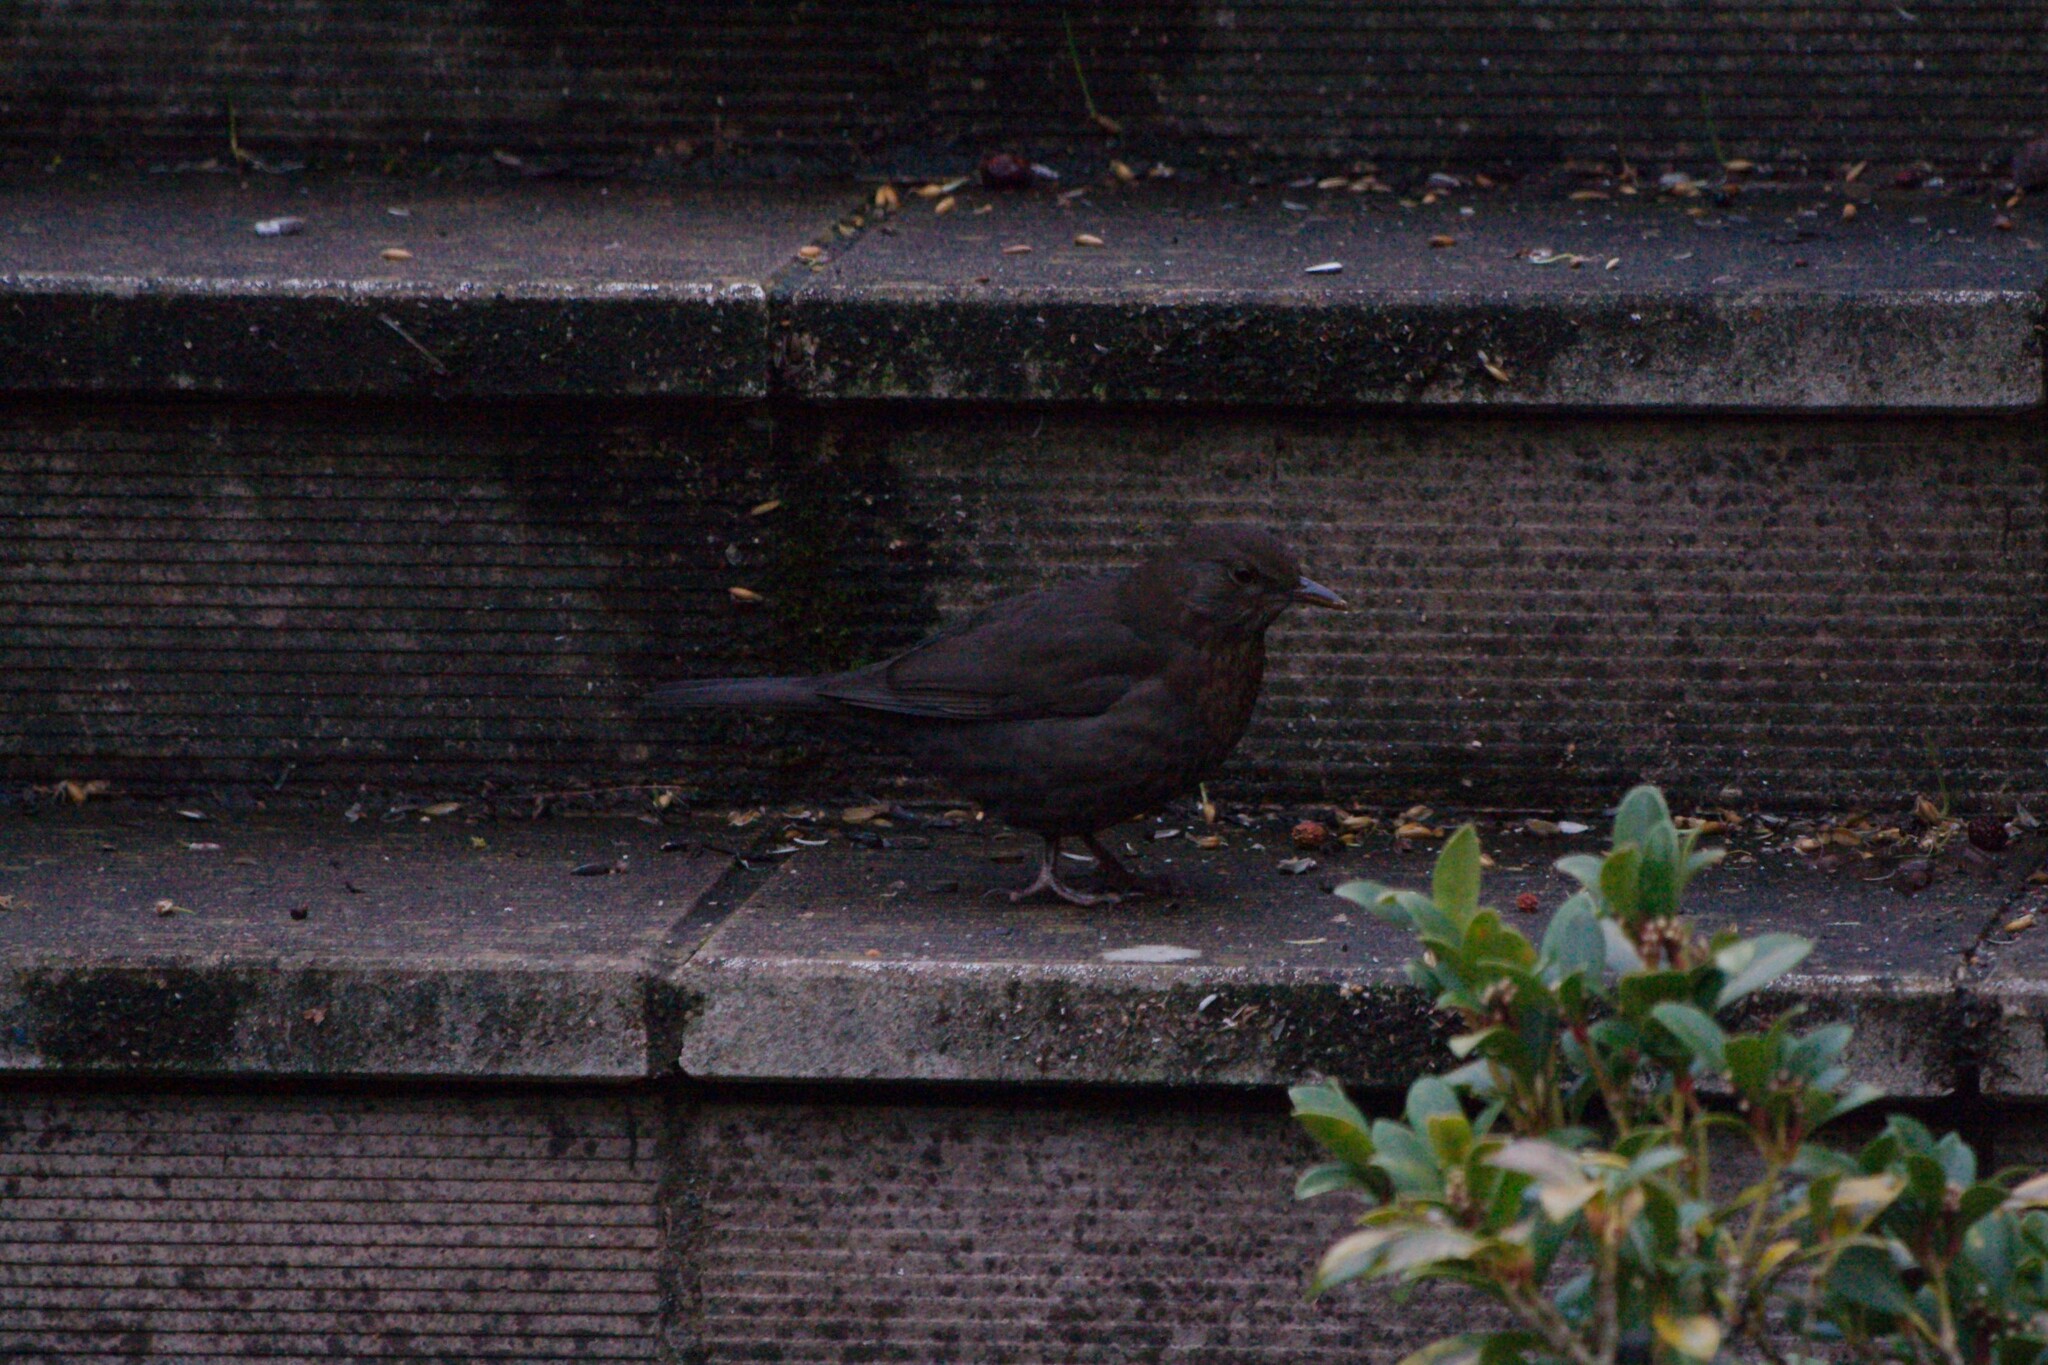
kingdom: Animalia
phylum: Chordata
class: Aves
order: Passeriformes
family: Turdidae
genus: Turdus
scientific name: Turdus merula
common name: Common blackbird
